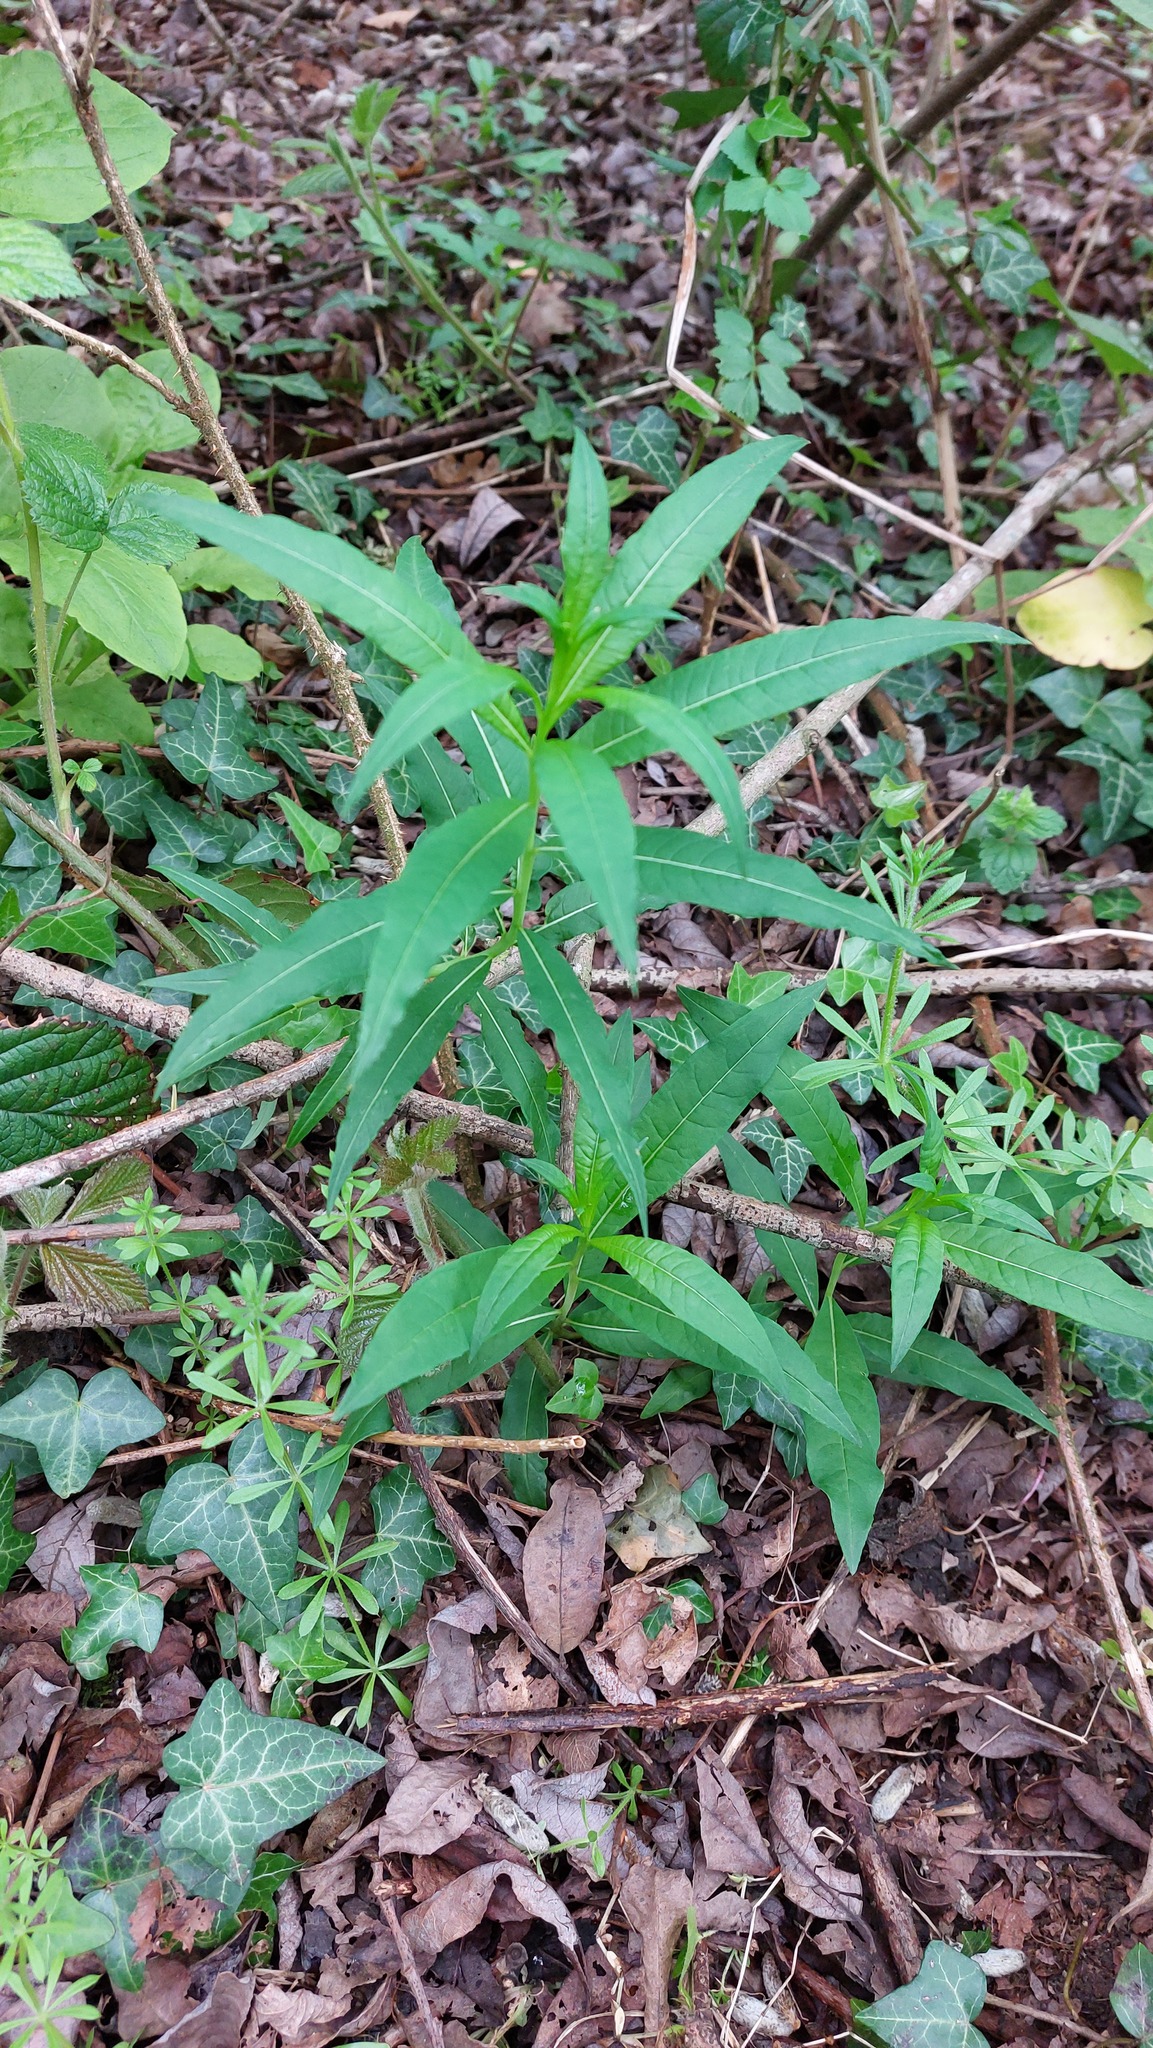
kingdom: Plantae
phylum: Tracheophyta
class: Magnoliopsida
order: Myrtales
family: Onagraceae
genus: Chamaenerion
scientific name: Chamaenerion angustifolium
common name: Fireweed
